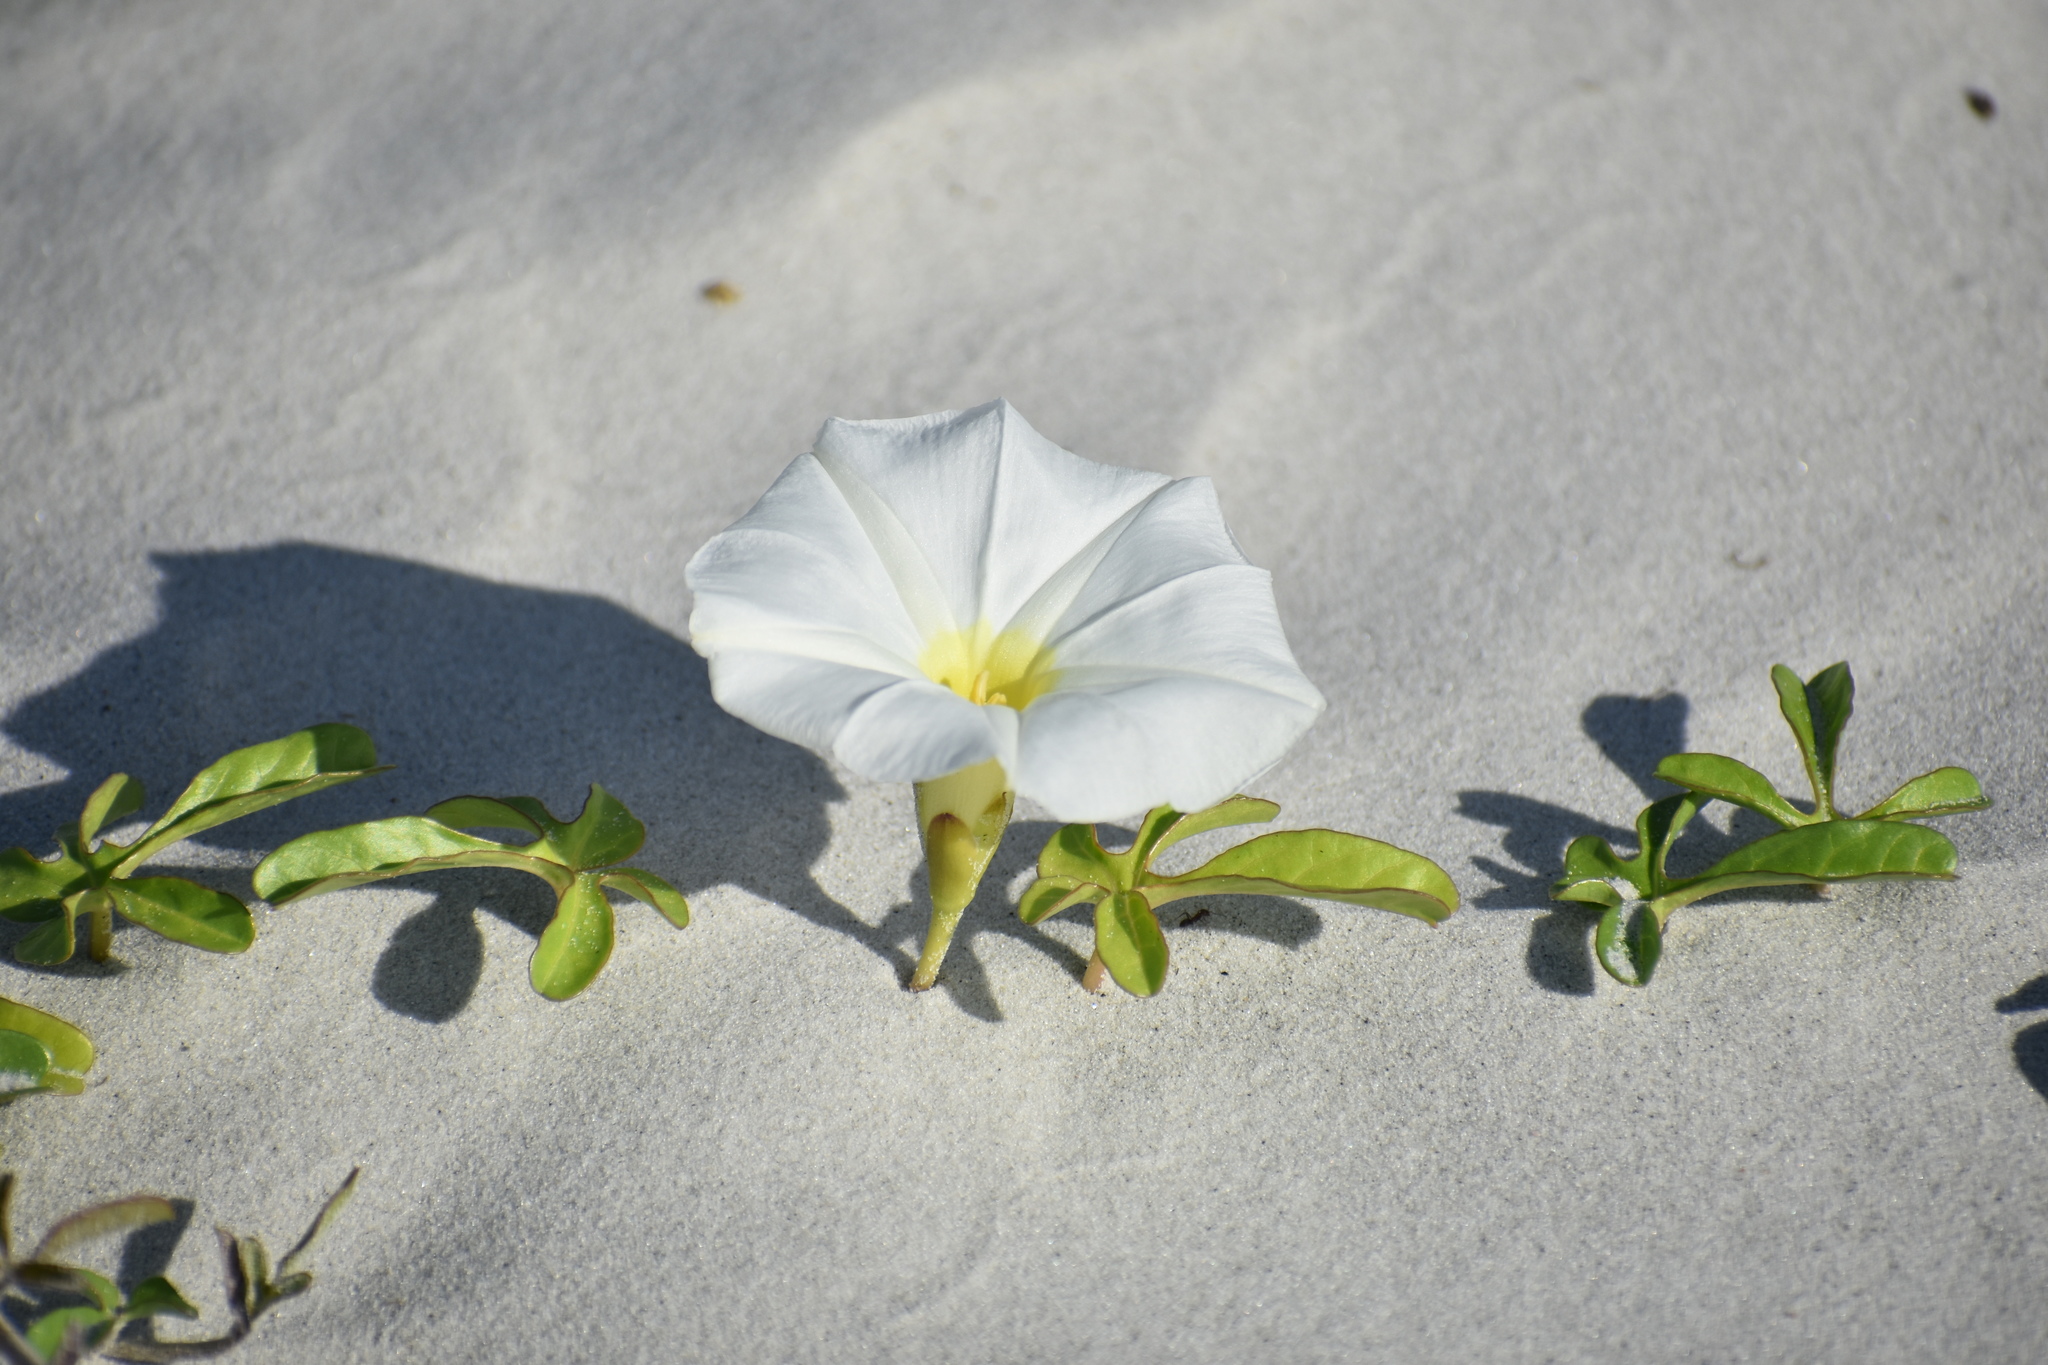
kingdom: Plantae
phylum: Tracheophyta
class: Magnoliopsida
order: Solanales
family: Convolvulaceae
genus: Ipomoea
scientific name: Ipomoea imperati
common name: Fiddle-leaf morning-glory
